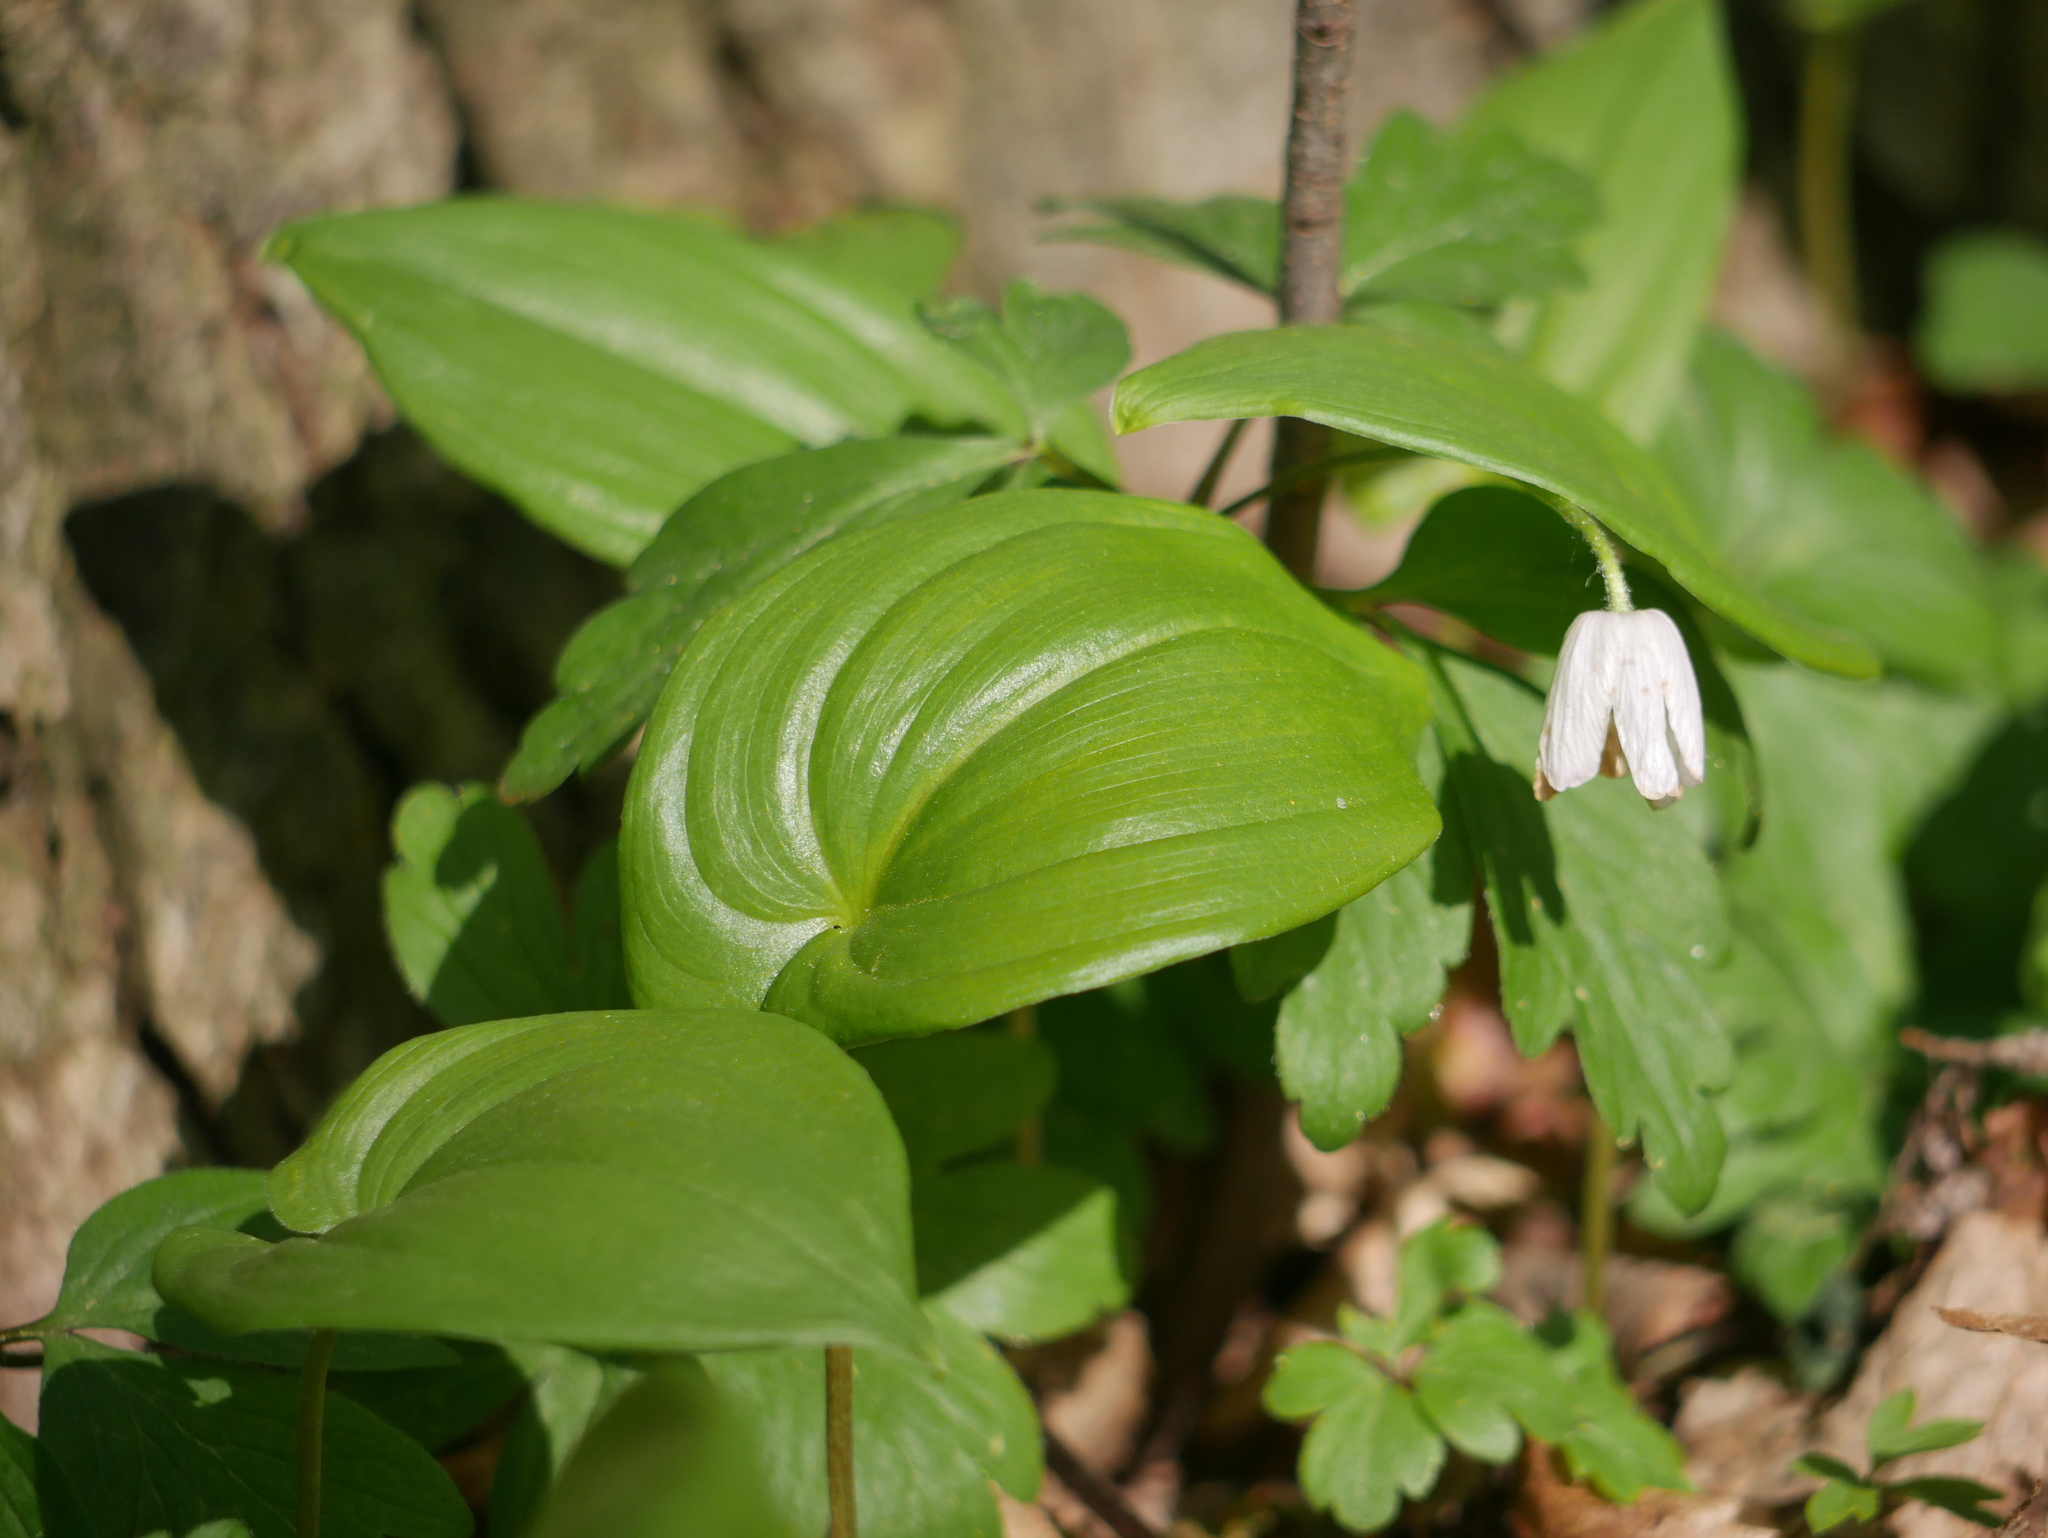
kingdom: Plantae
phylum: Tracheophyta
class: Liliopsida
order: Asparagales
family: Asparagaceae
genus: Maianthemum
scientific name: Maianthemum bifolium
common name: May lily
